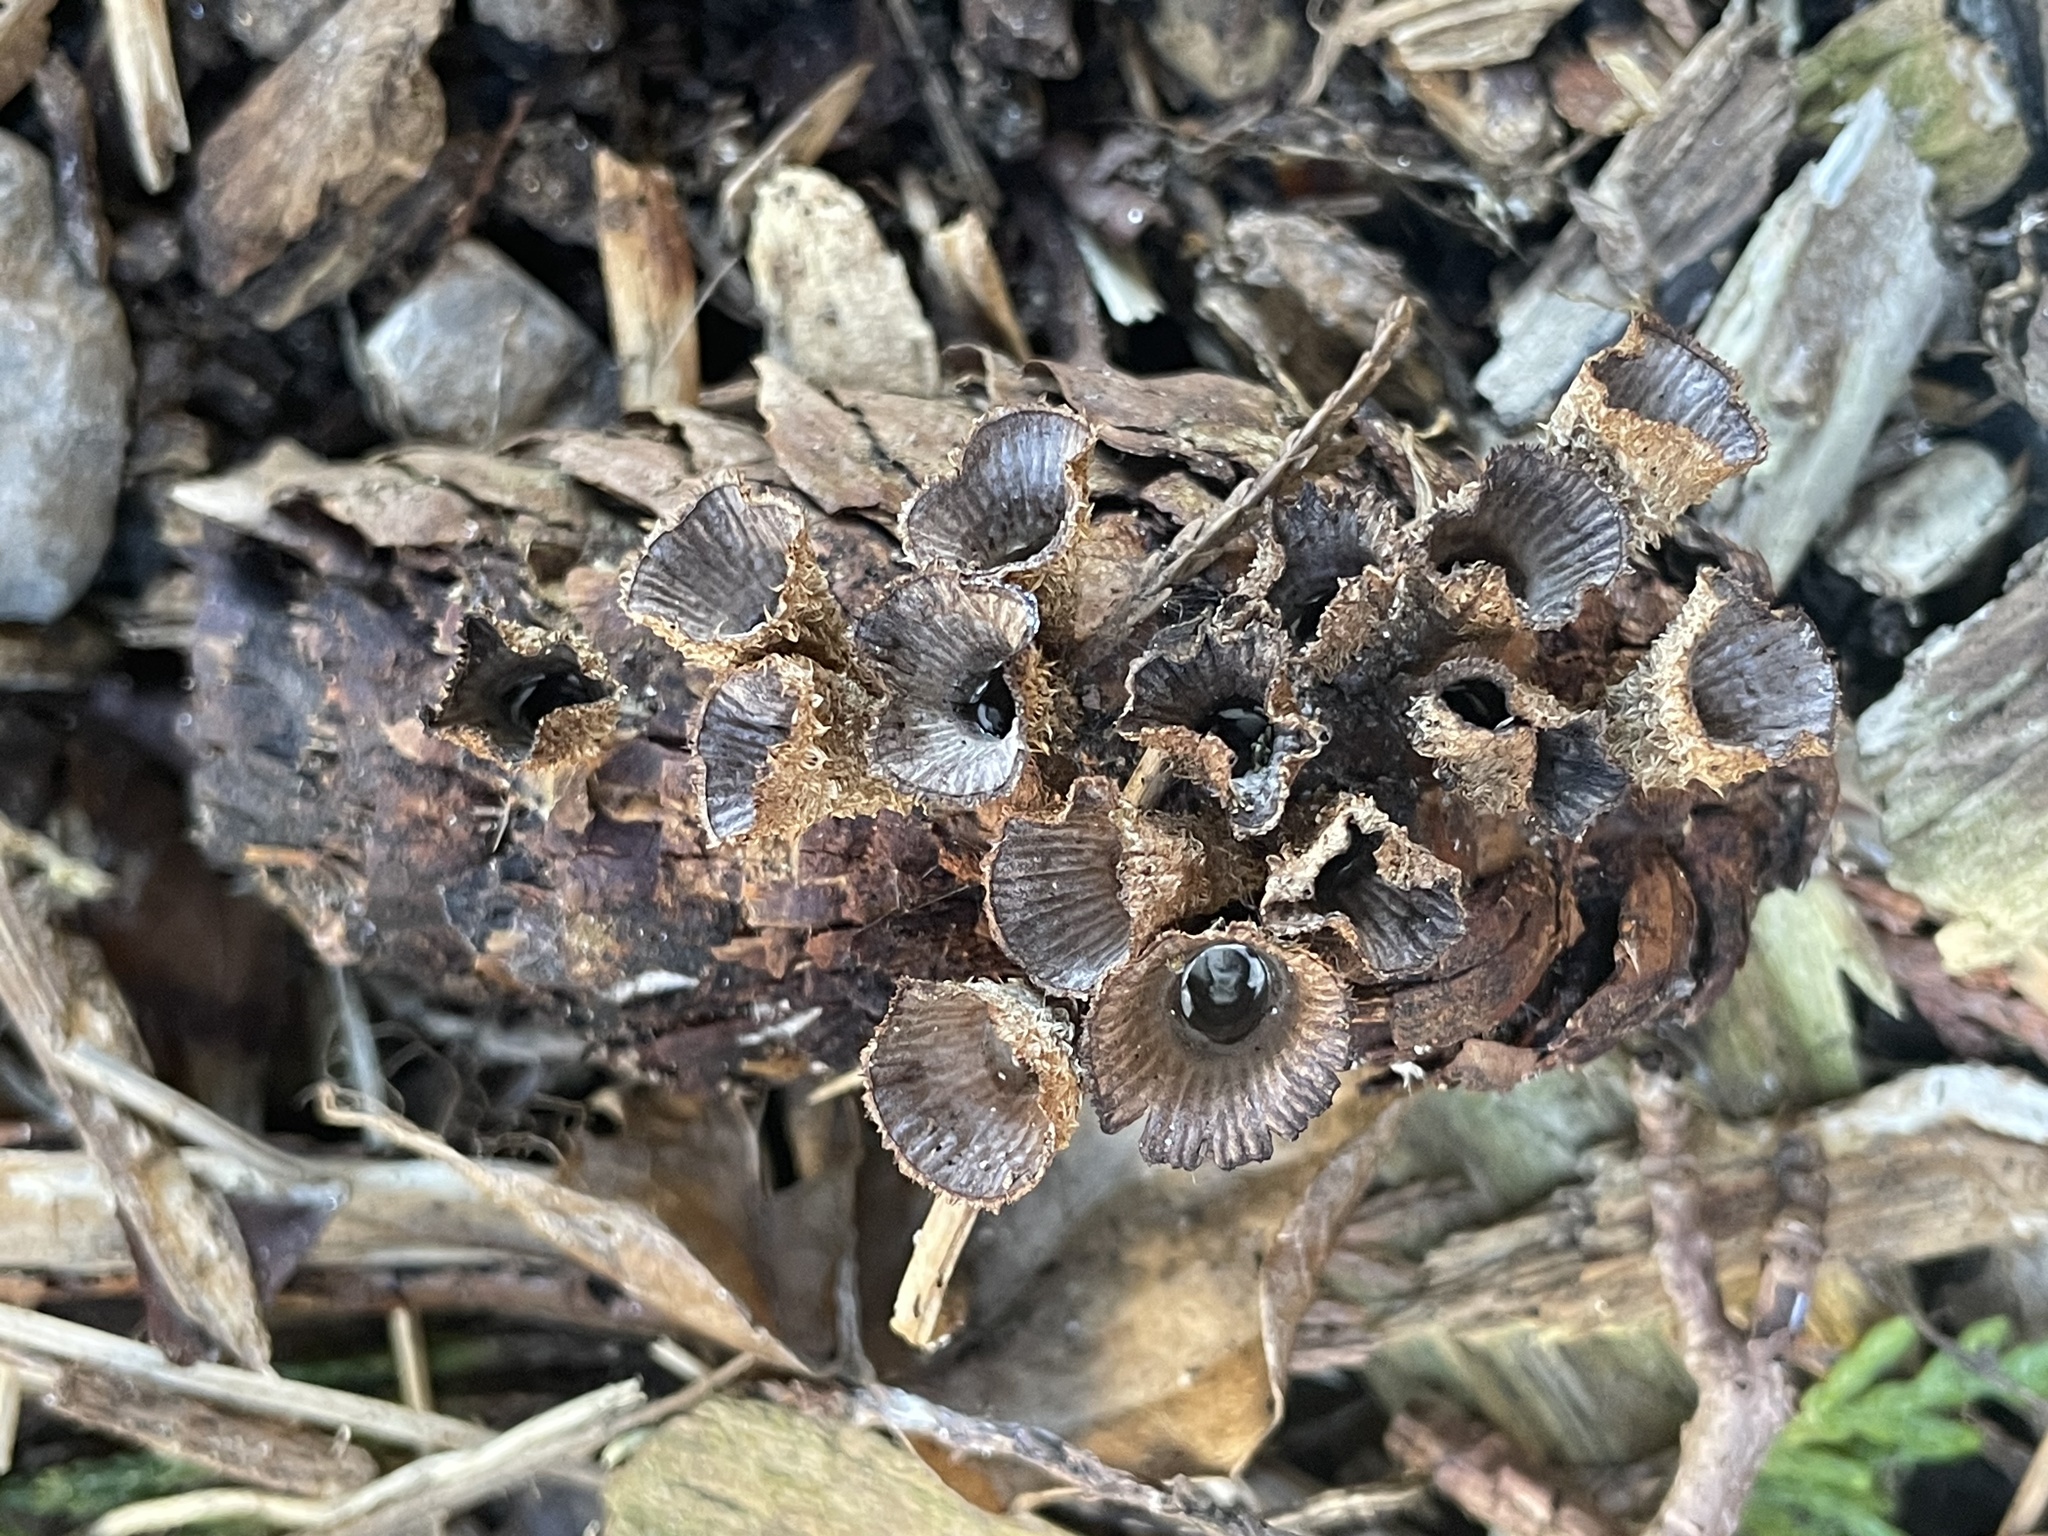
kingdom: Fungi
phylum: Basidiomycota
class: Agaricomycetes
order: Agaricales
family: Agaricaceae
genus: Cyathus
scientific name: Cyathus striatus
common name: Fluted bird's nest
